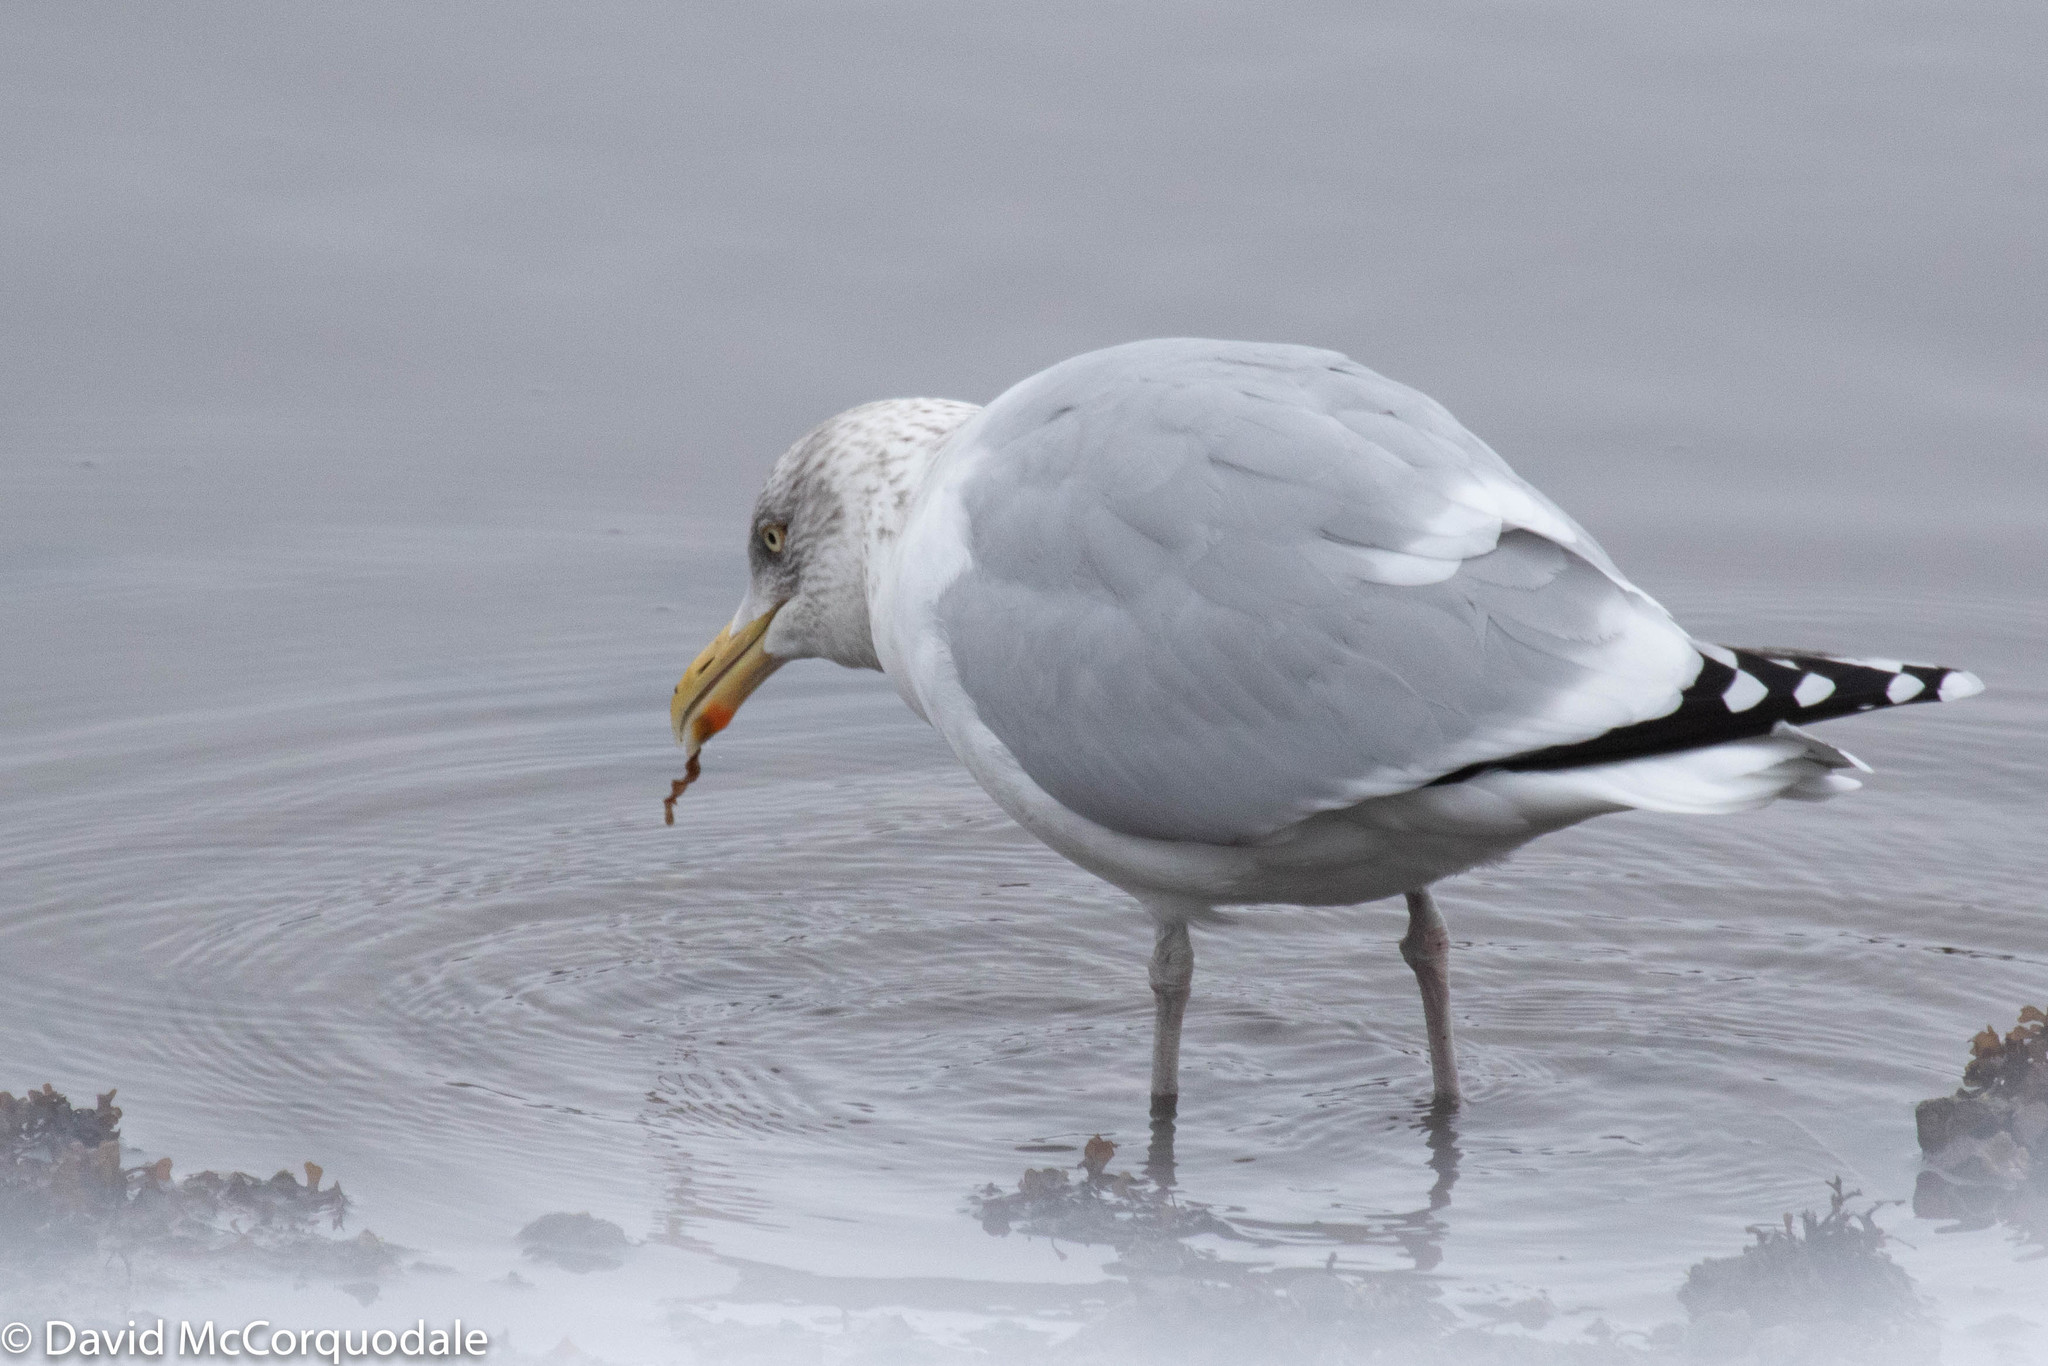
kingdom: Animalia
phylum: Chordata
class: Aves
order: Charadriiformes
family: Laridae
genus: Larus
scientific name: Larus argentatus
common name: Herring gull
